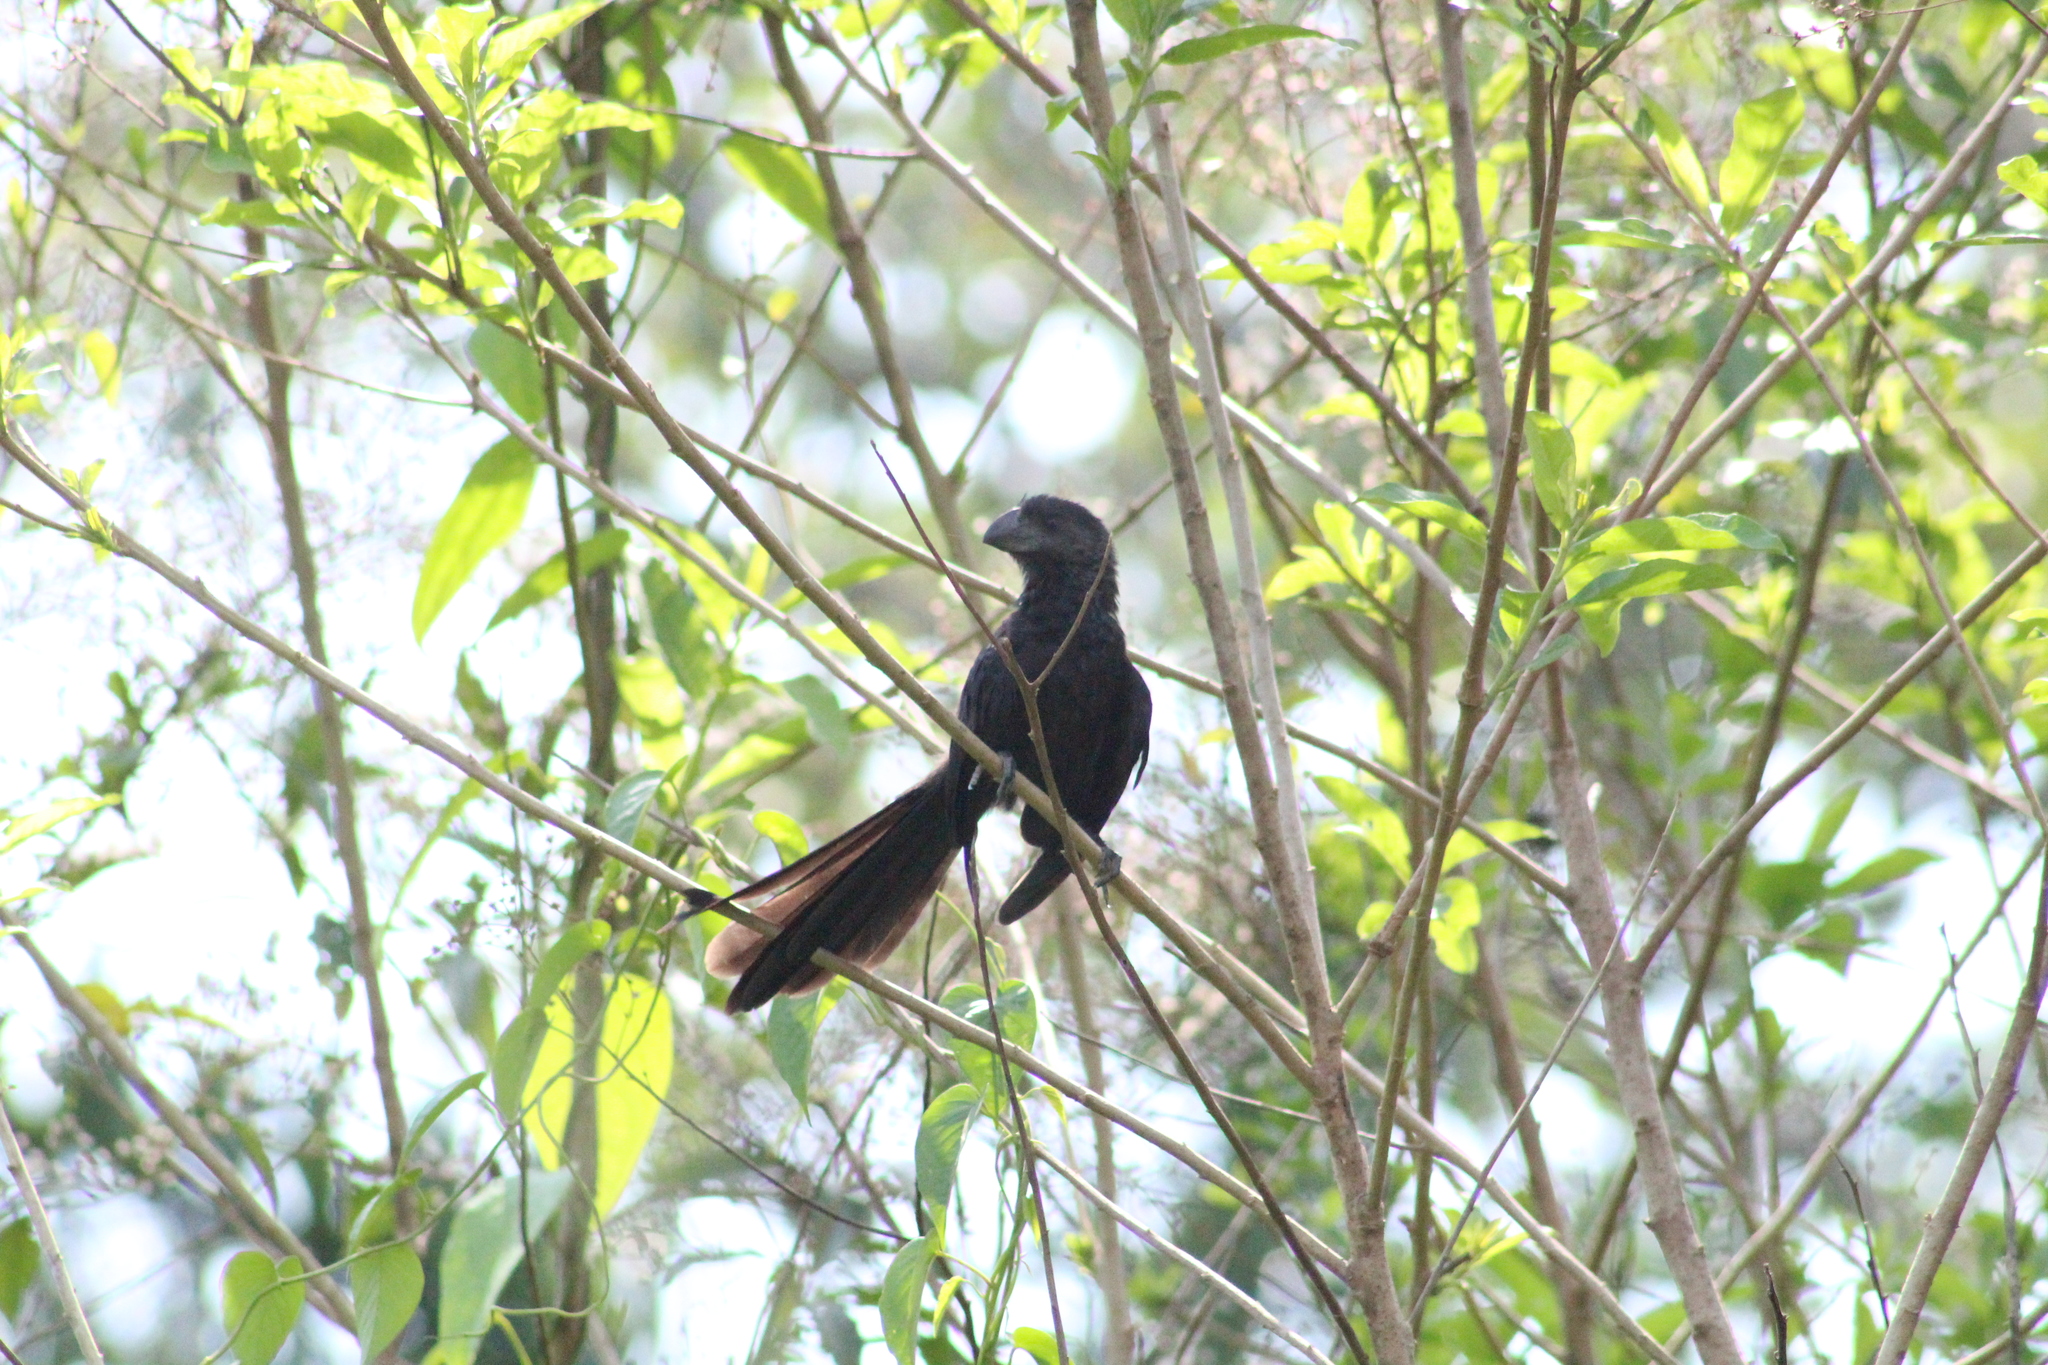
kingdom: Animalia
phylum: Chordata
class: Aves
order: Cuculiformes
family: Cuculidae
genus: Crotophaga
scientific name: Crotophaga major
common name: Greater ani
